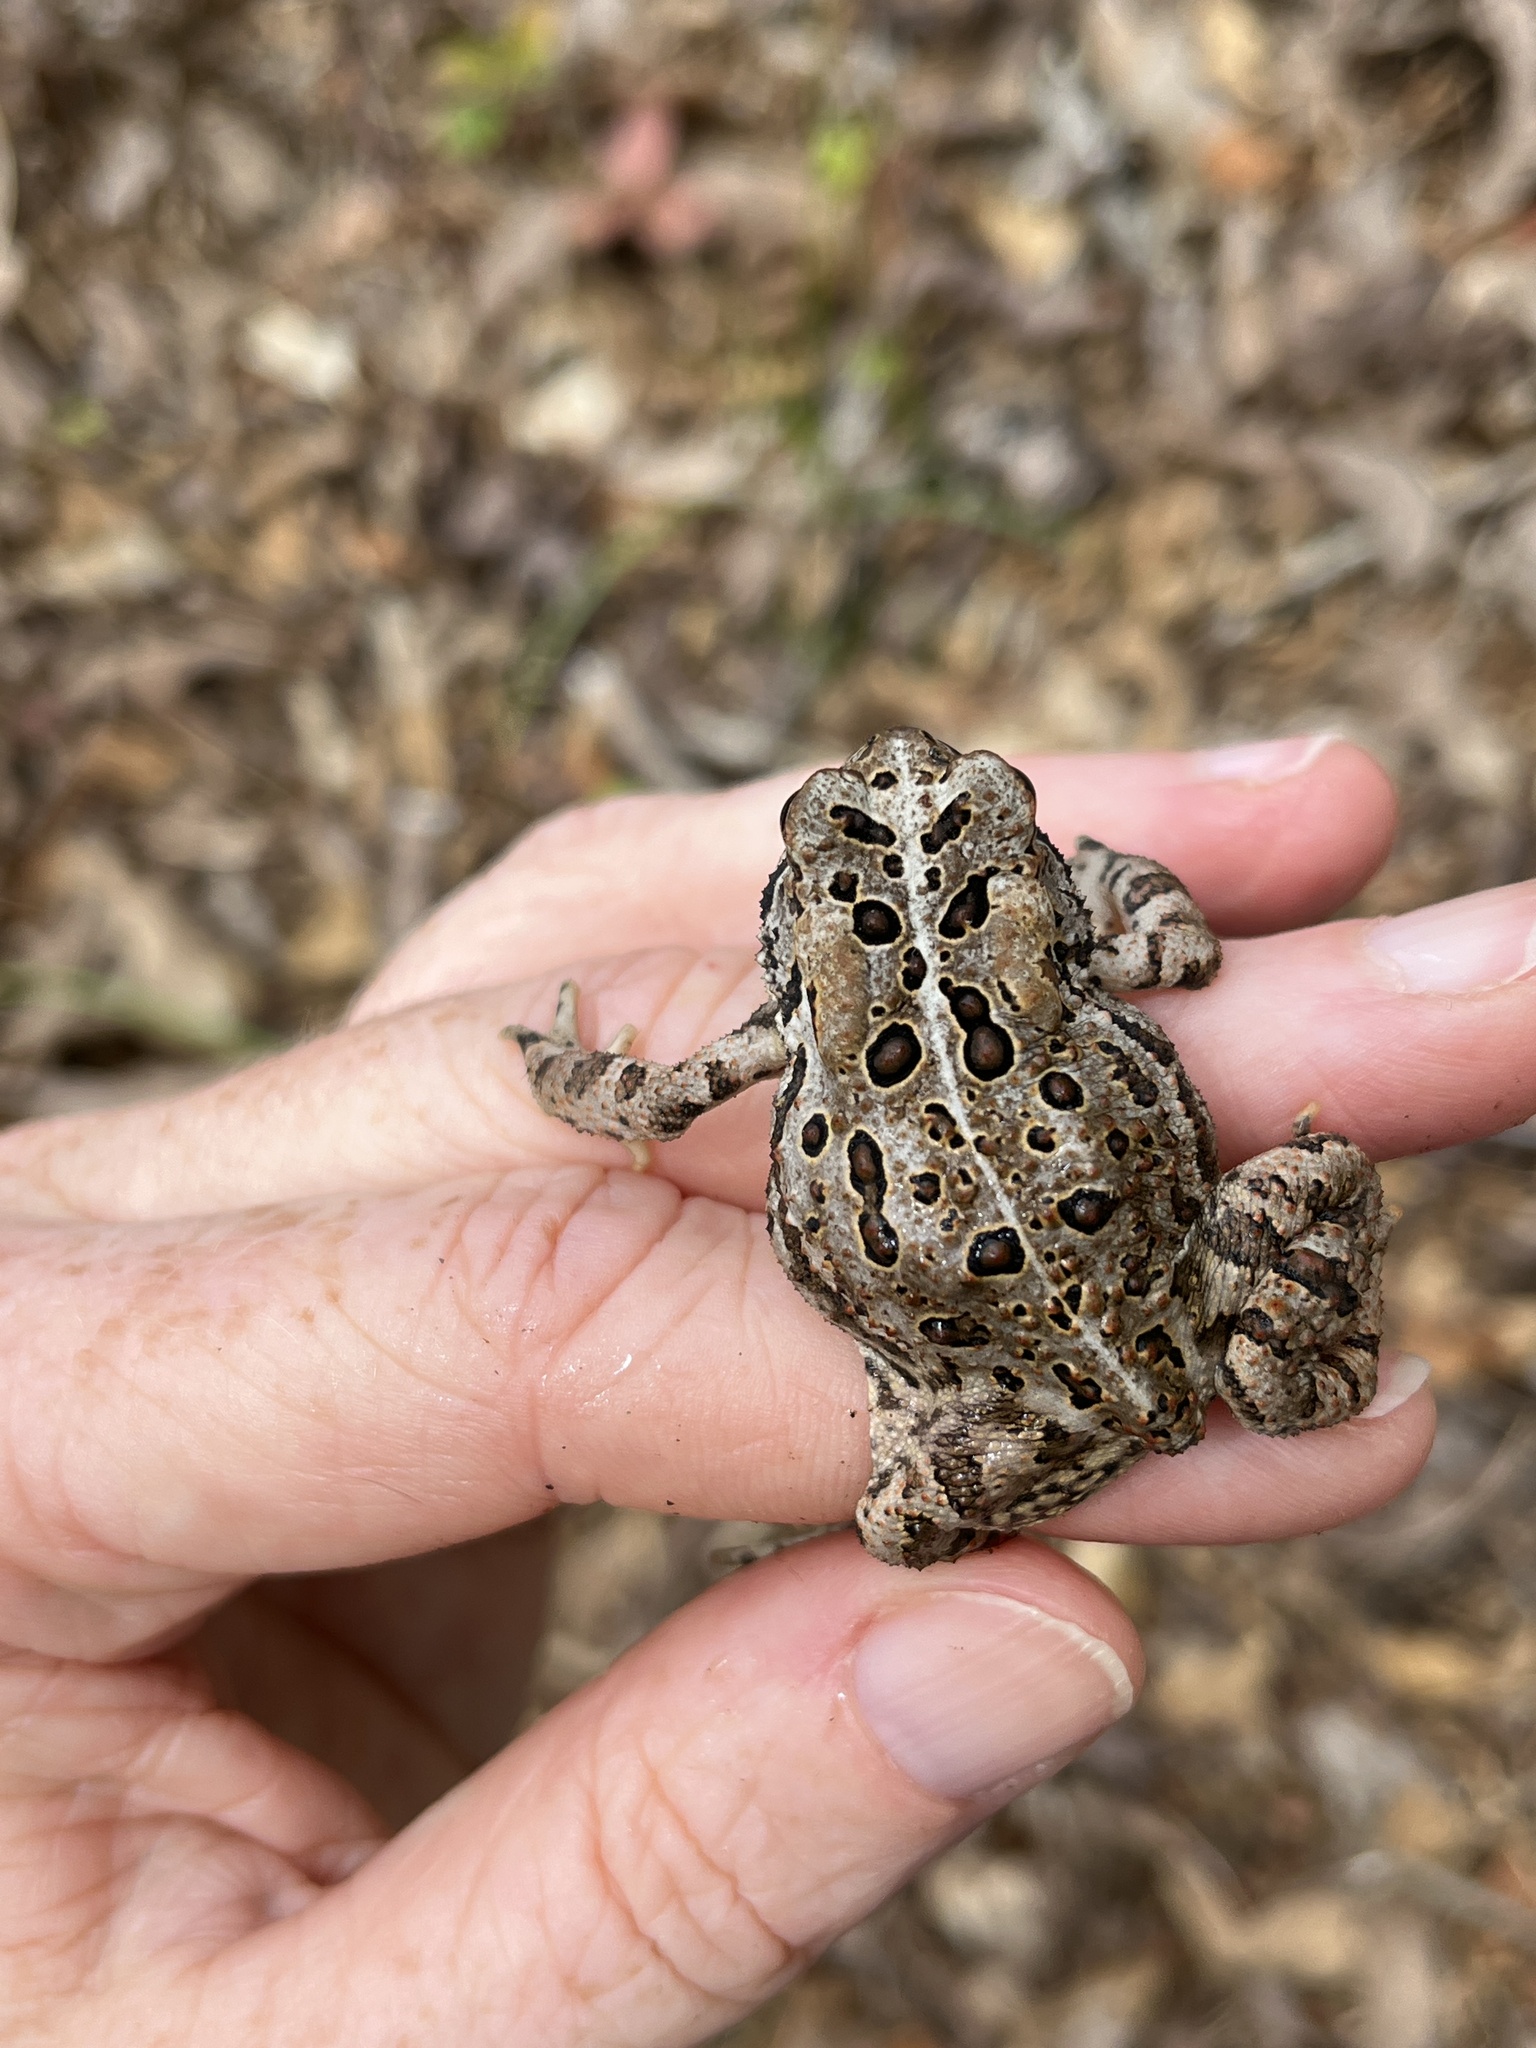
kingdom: Animalia
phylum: Chordata
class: Amphibia
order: Anura
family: Bufonidae
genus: Anaxyrus
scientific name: Anaxyrus americanus
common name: American toad
